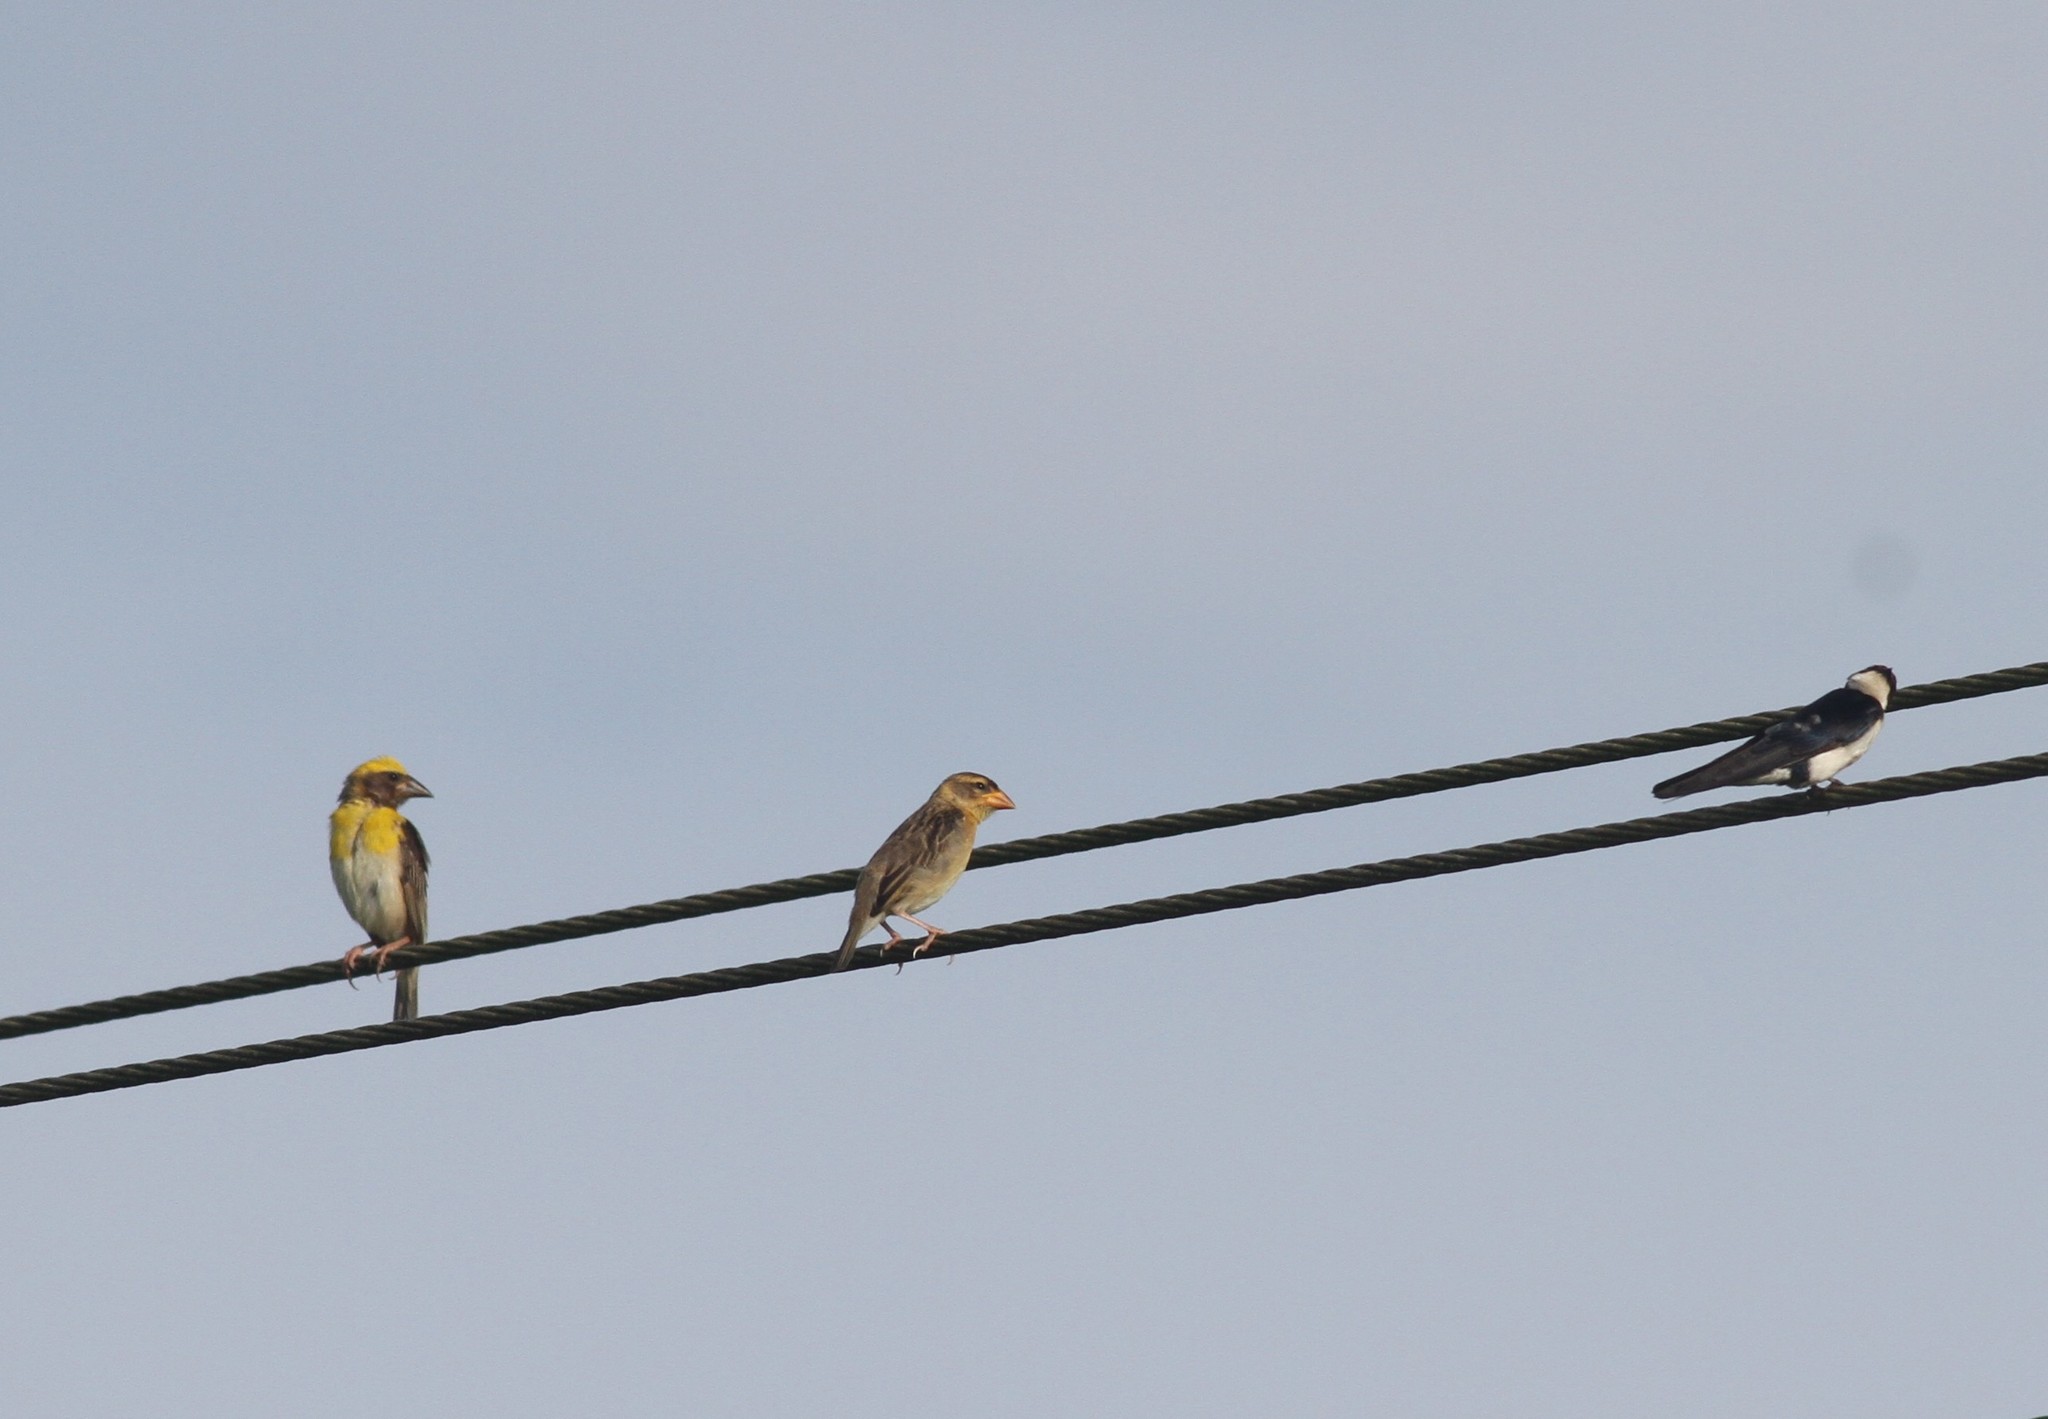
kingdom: Animalia
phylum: Chordata
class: Aves
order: Passeriformes
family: Ploceidae
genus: Ploceus
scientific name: Ploceus philippinus
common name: Baya weaver
